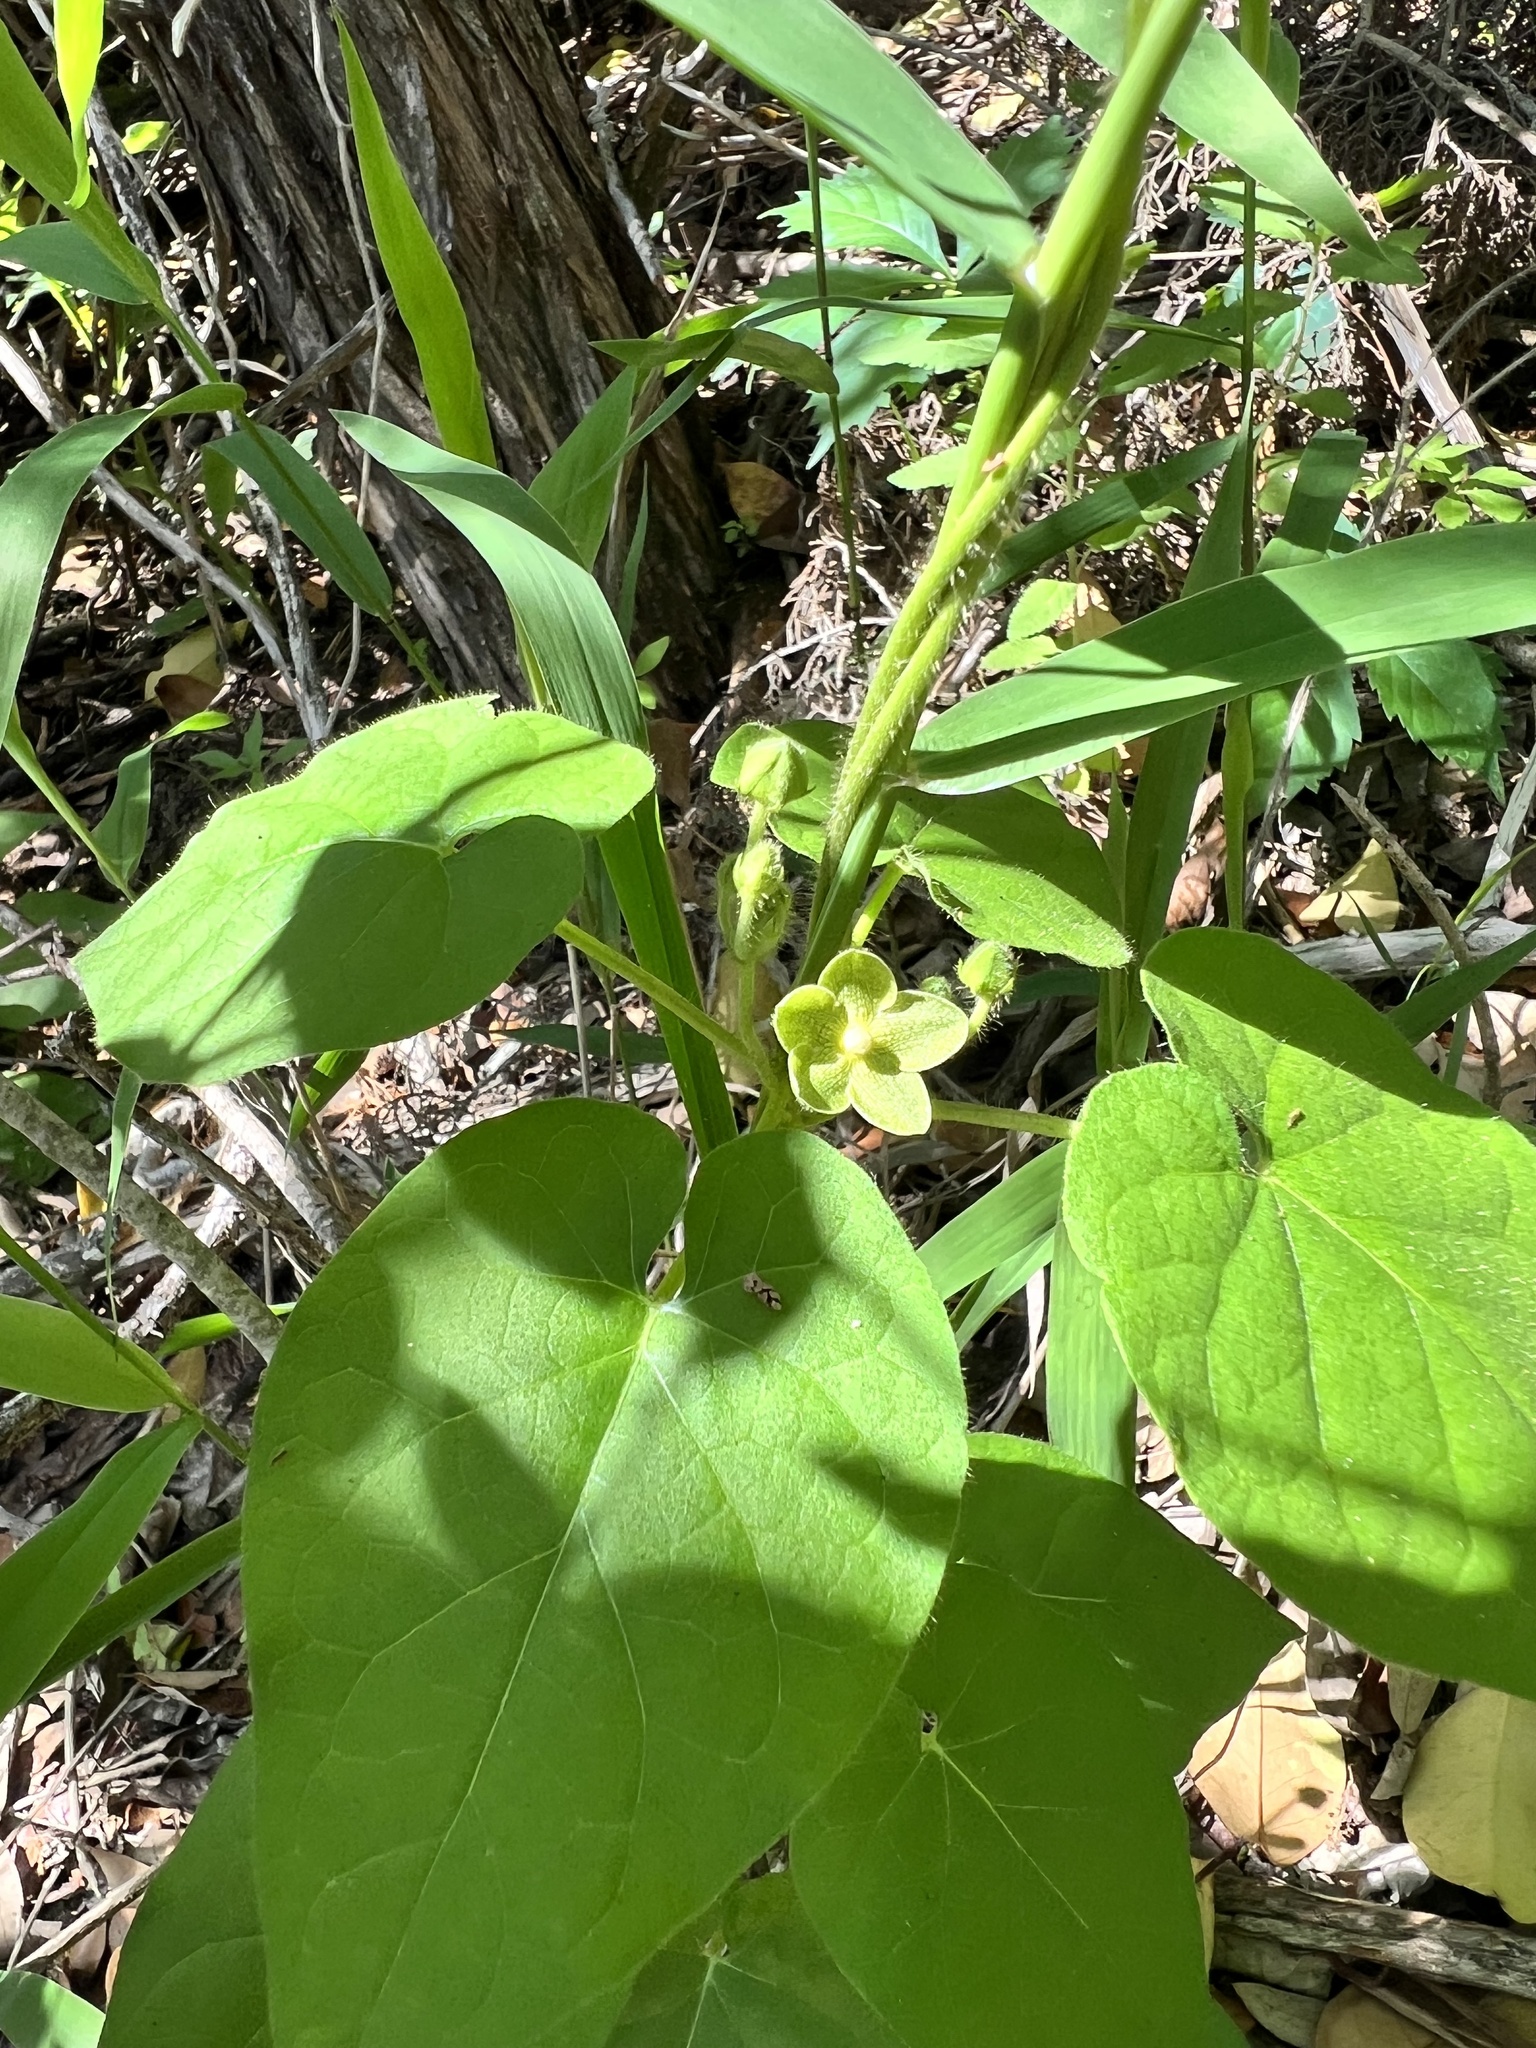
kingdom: Plantae
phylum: Tracheophyta
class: Magnoliopsida
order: Gentianales
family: Apocynaceae
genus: Dictyanthus
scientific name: Dictyanthus reticulatus
